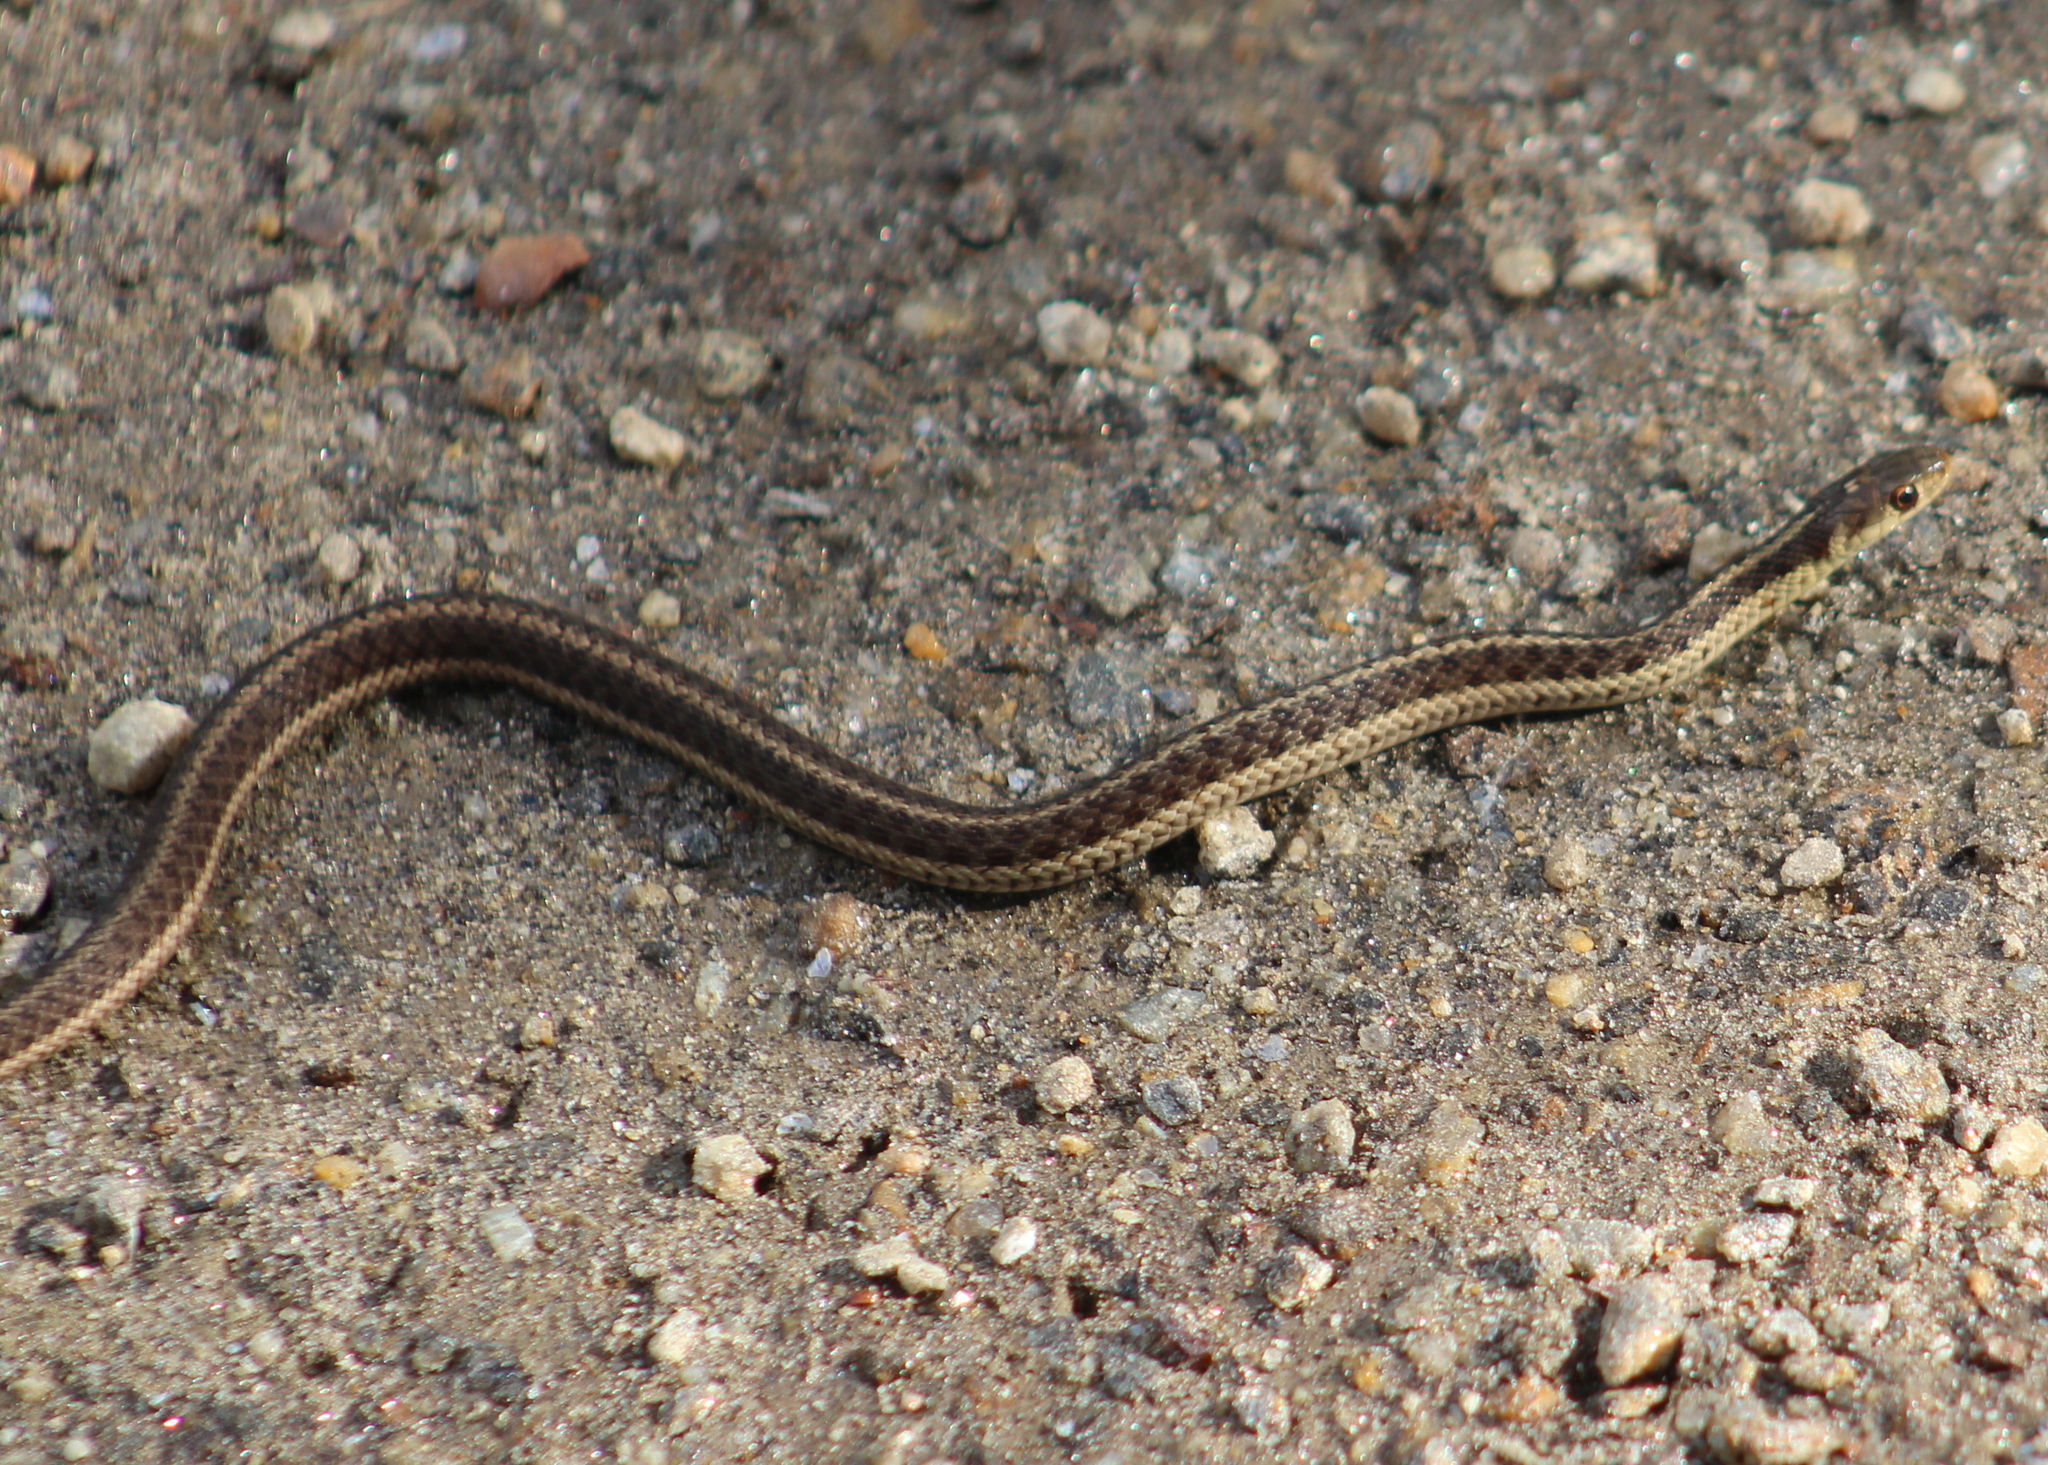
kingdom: Animalia
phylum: Chordata
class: Squamata
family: Colubridae
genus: Thamnophis
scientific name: Thamnophis sirtalis
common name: Common garter snake
